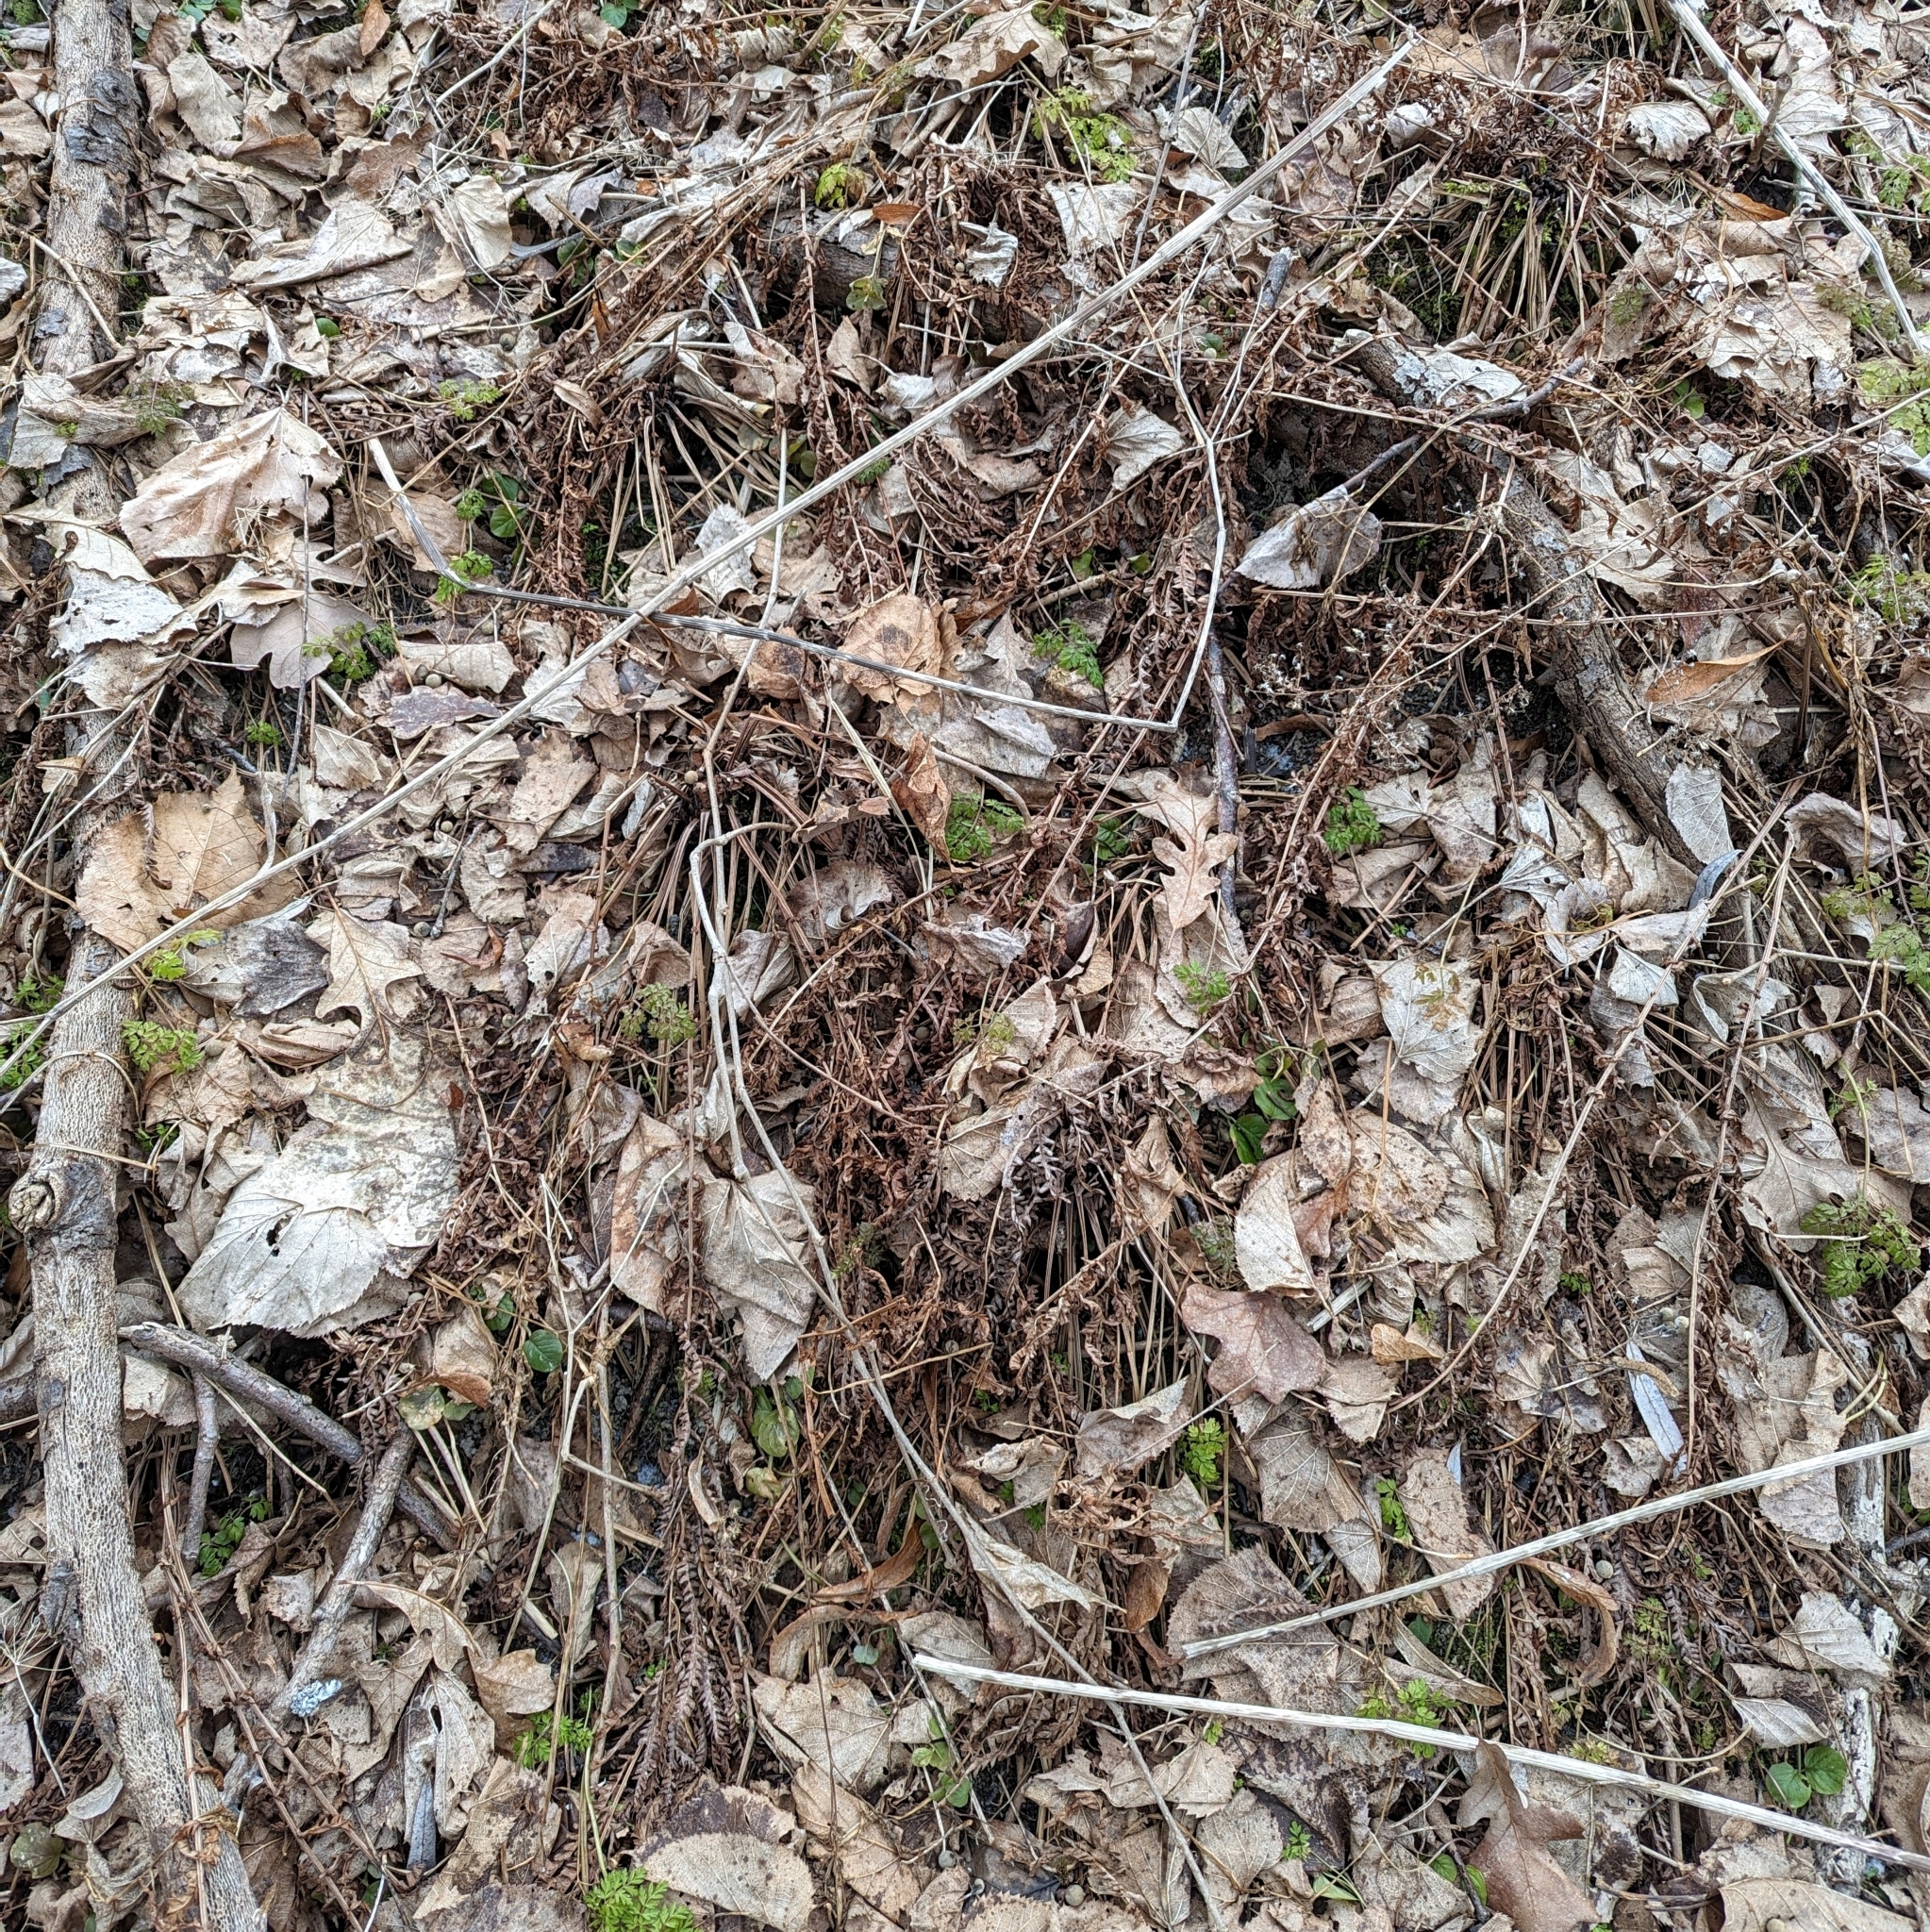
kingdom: Plantae
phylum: Tracheophyta
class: Polypodiopsida
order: Polypodiales
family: Onocleaceae
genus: Matteuccia
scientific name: Matteuccia struthiopteris
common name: Ostrich fern
